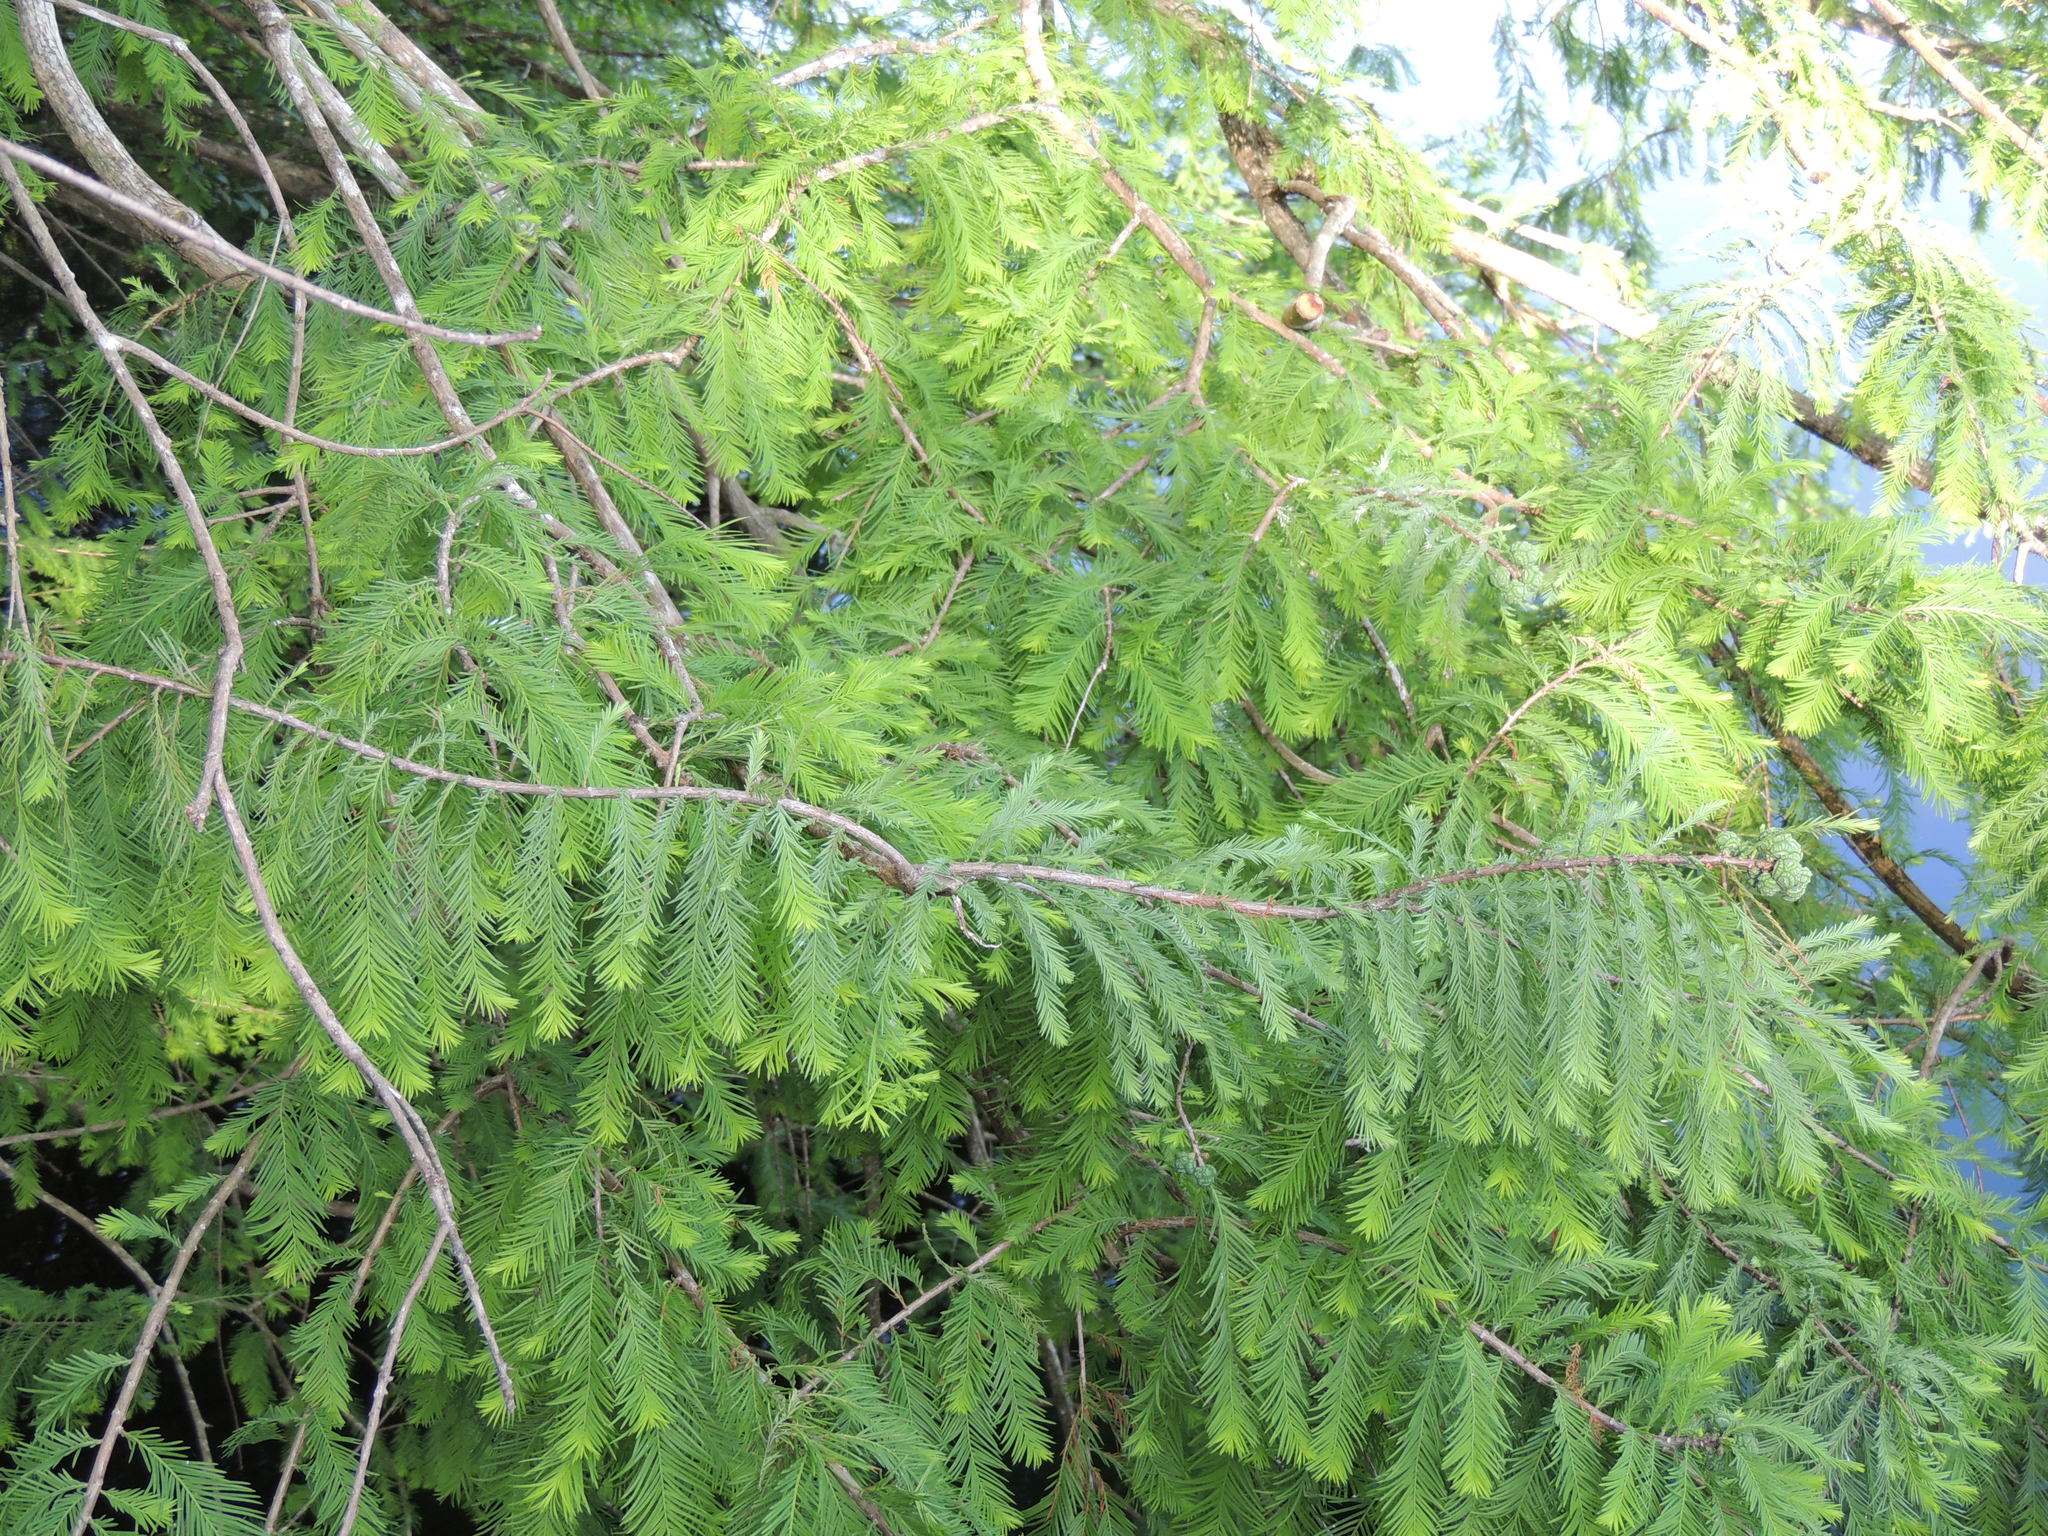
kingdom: Plantae
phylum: Tracheophyta
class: Pinopsida
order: Pinales
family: Cupressaceae
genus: Taxodium
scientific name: Taxodium distichum
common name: Bald cypress
